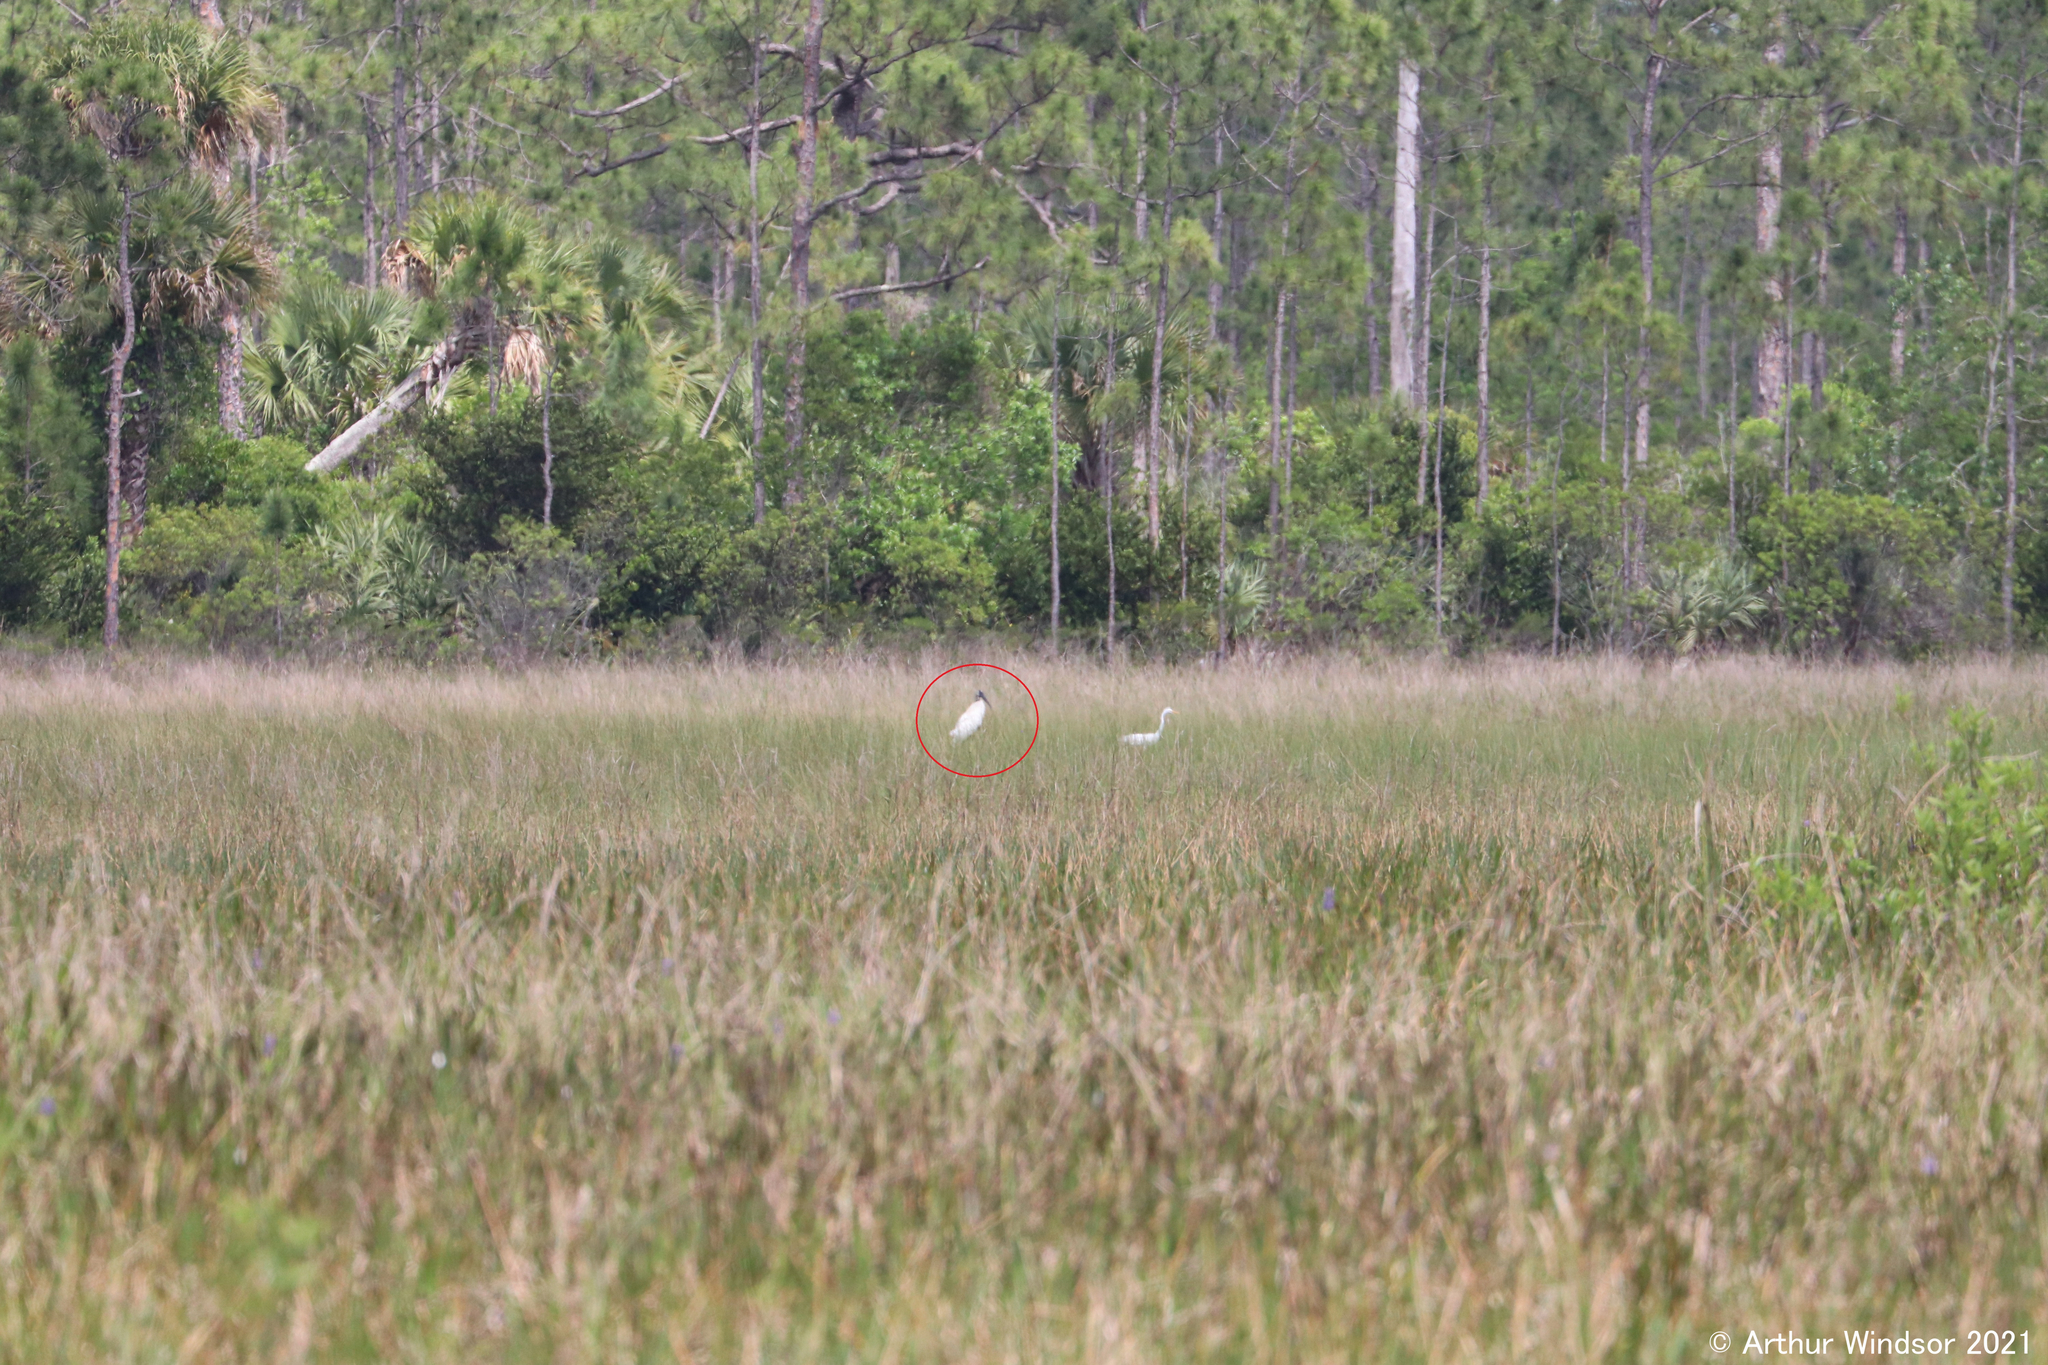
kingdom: Animalia
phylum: Chordata
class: Aves
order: Ciconiiformes
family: Ciconiidae
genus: Mycteria
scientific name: Mycteria americana
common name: Wood stork
